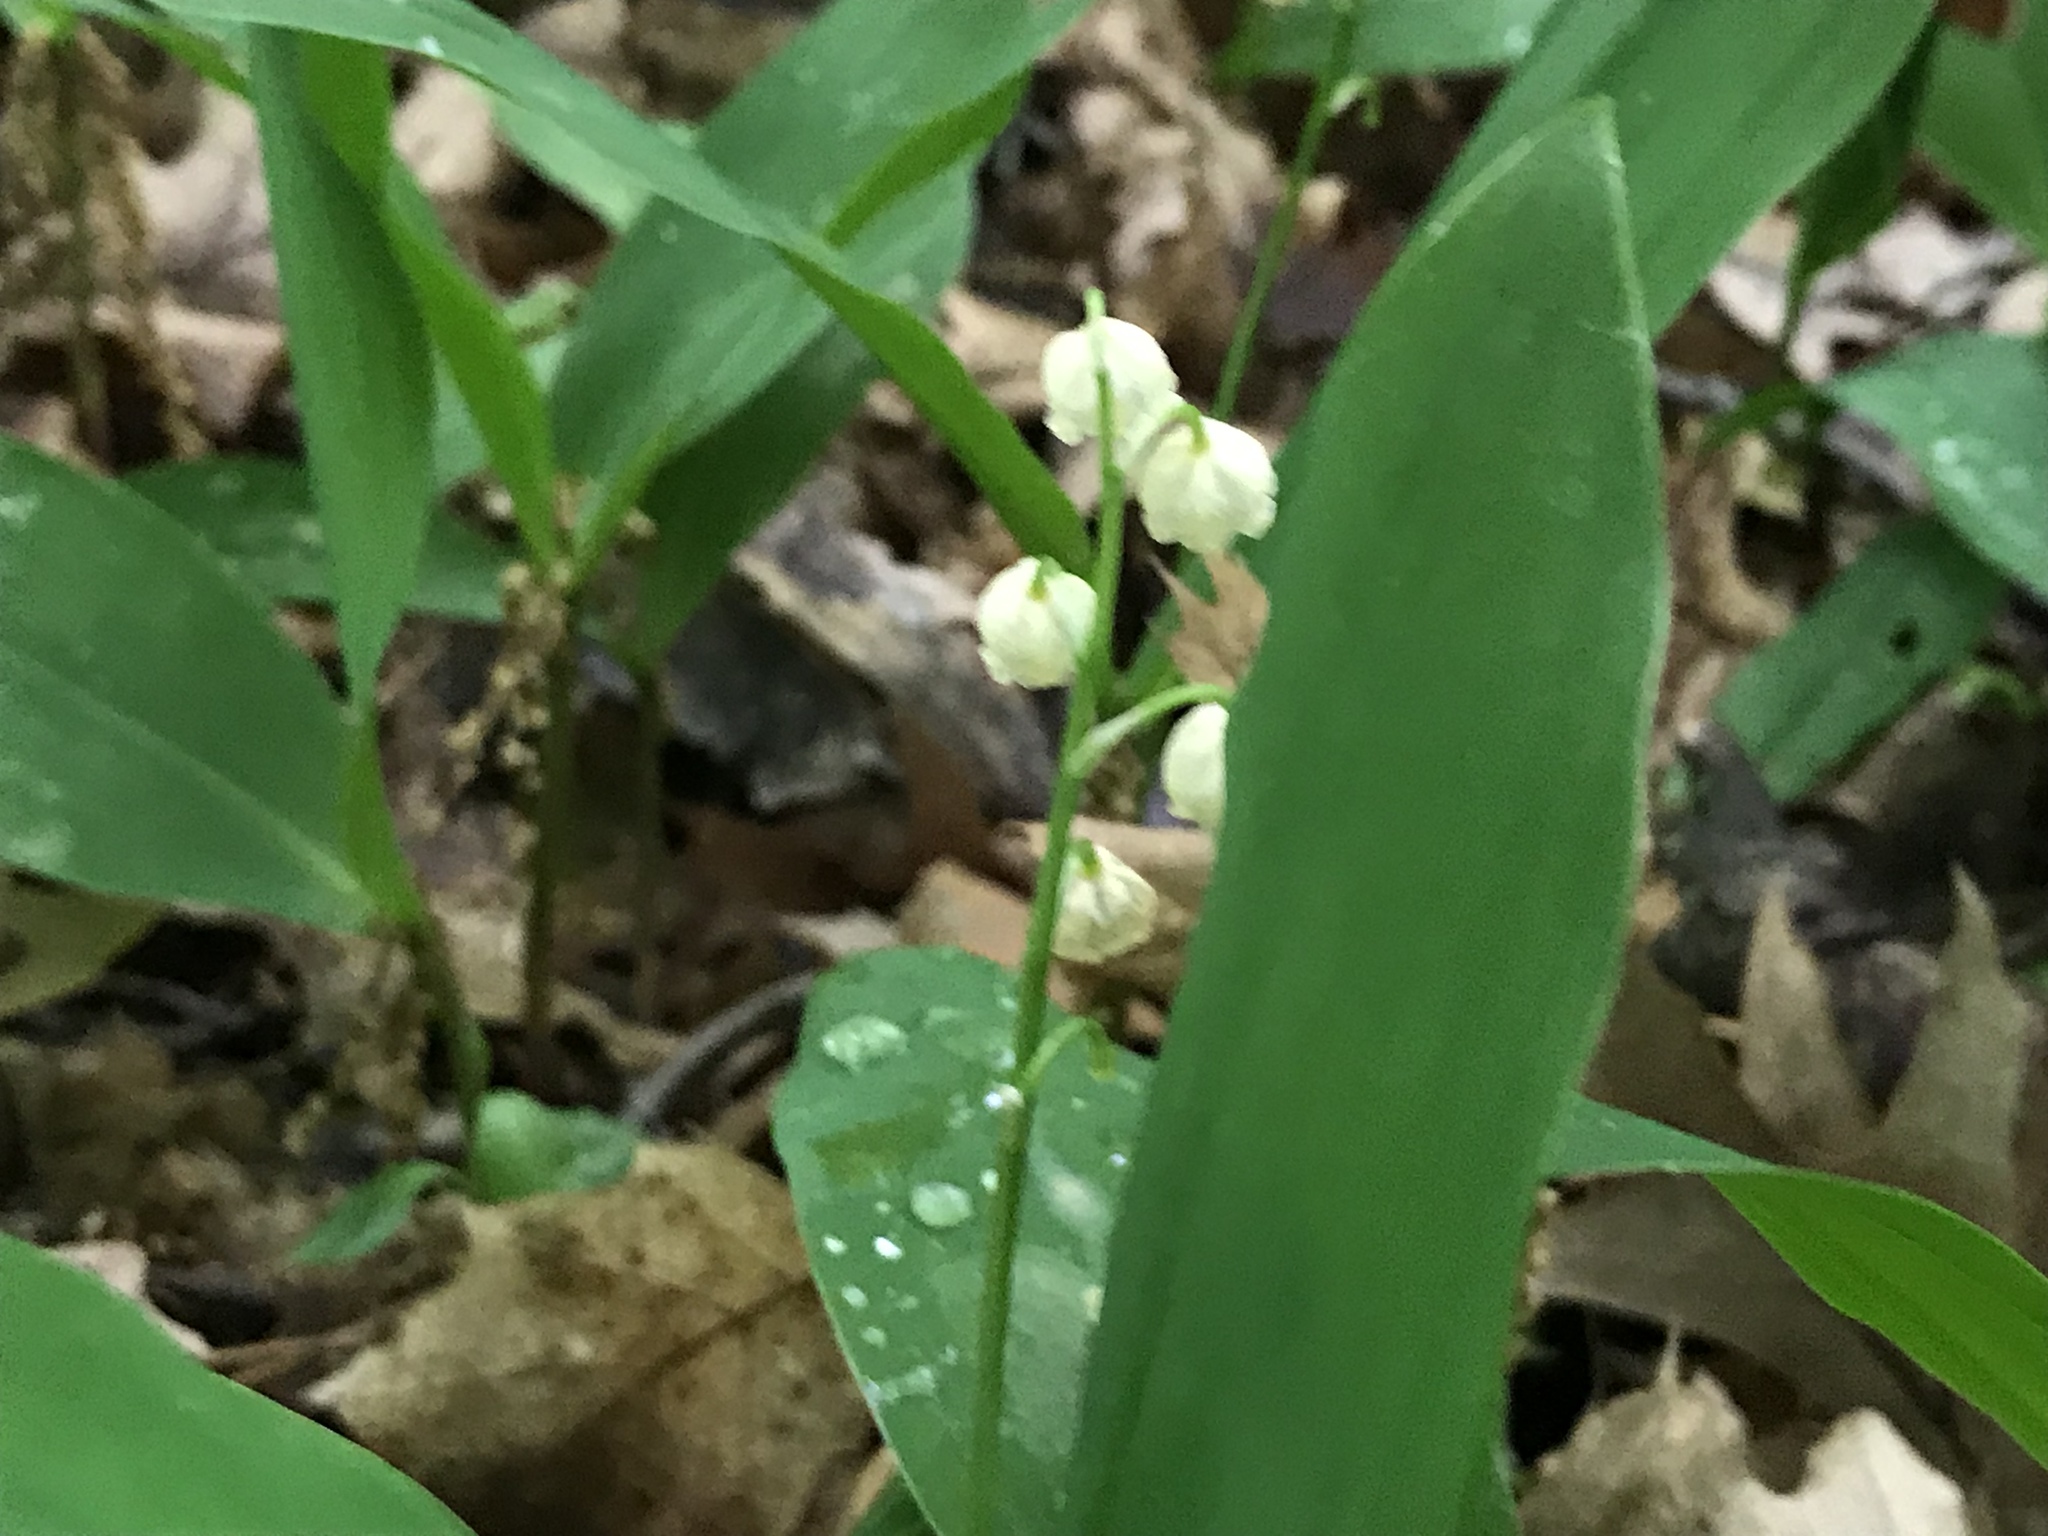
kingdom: Plantae
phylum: Tracheophyta
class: Liliopsida
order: Asparagales
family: Asparagaceae
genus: Convallaria
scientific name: Convallaria majalis
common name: Lily-of-the-valley
